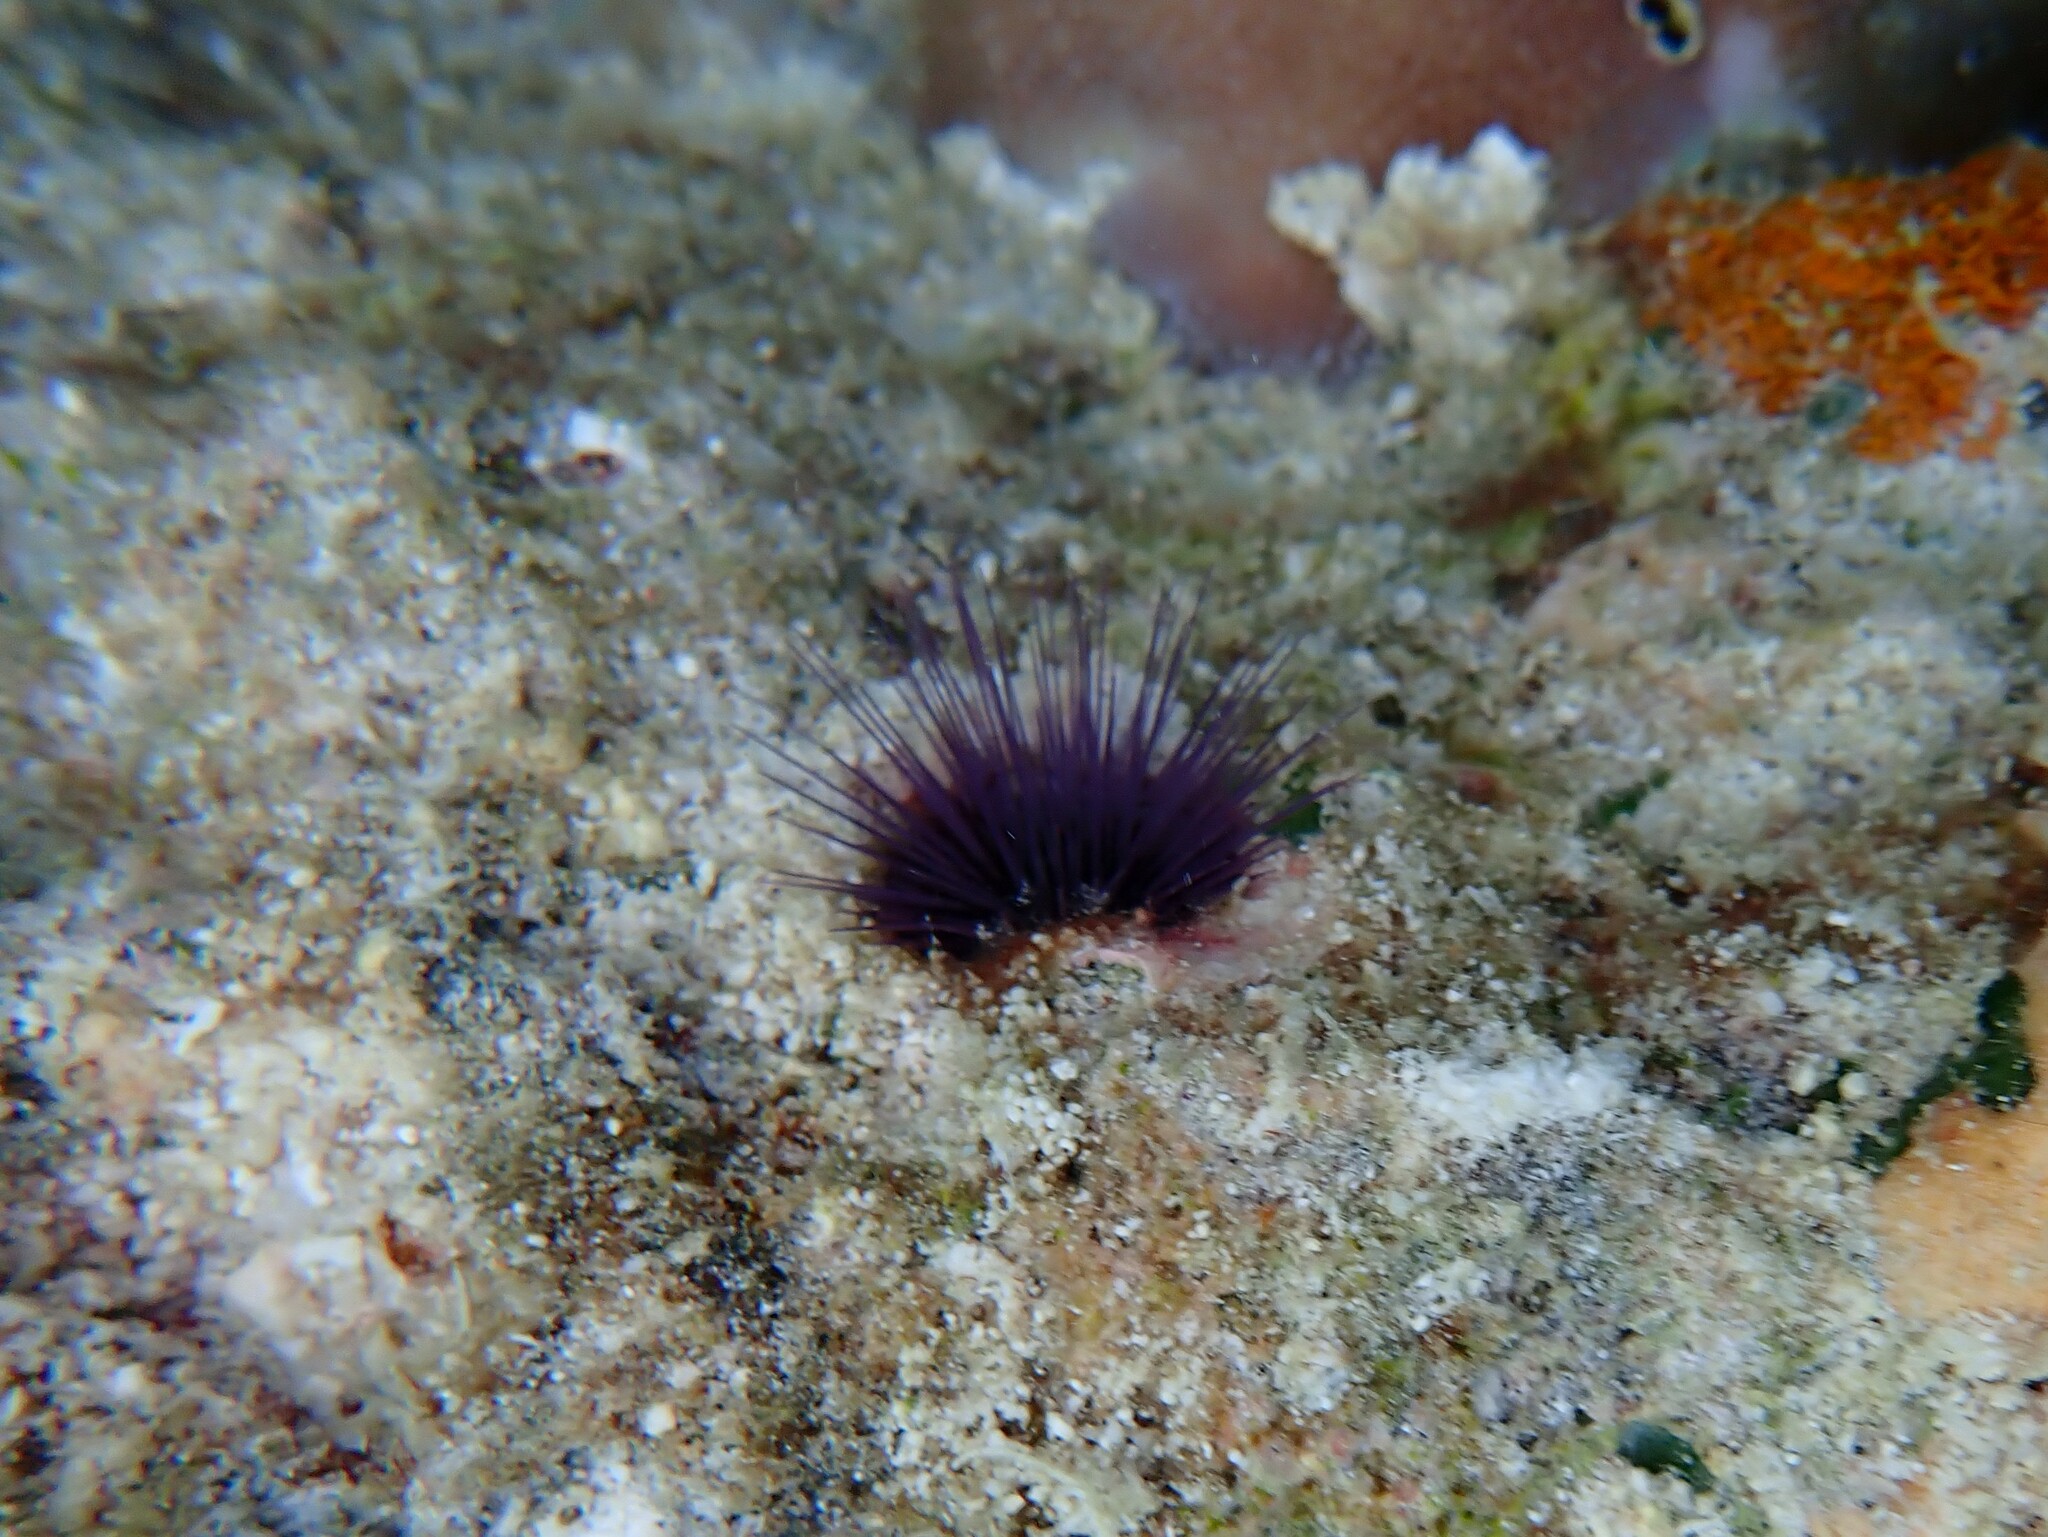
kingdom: Animalia
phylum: Echinodermata
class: Echinoidea
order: Camarodonta
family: Echinometridae
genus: Echinostrephus
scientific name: Echinostrephus molaris
